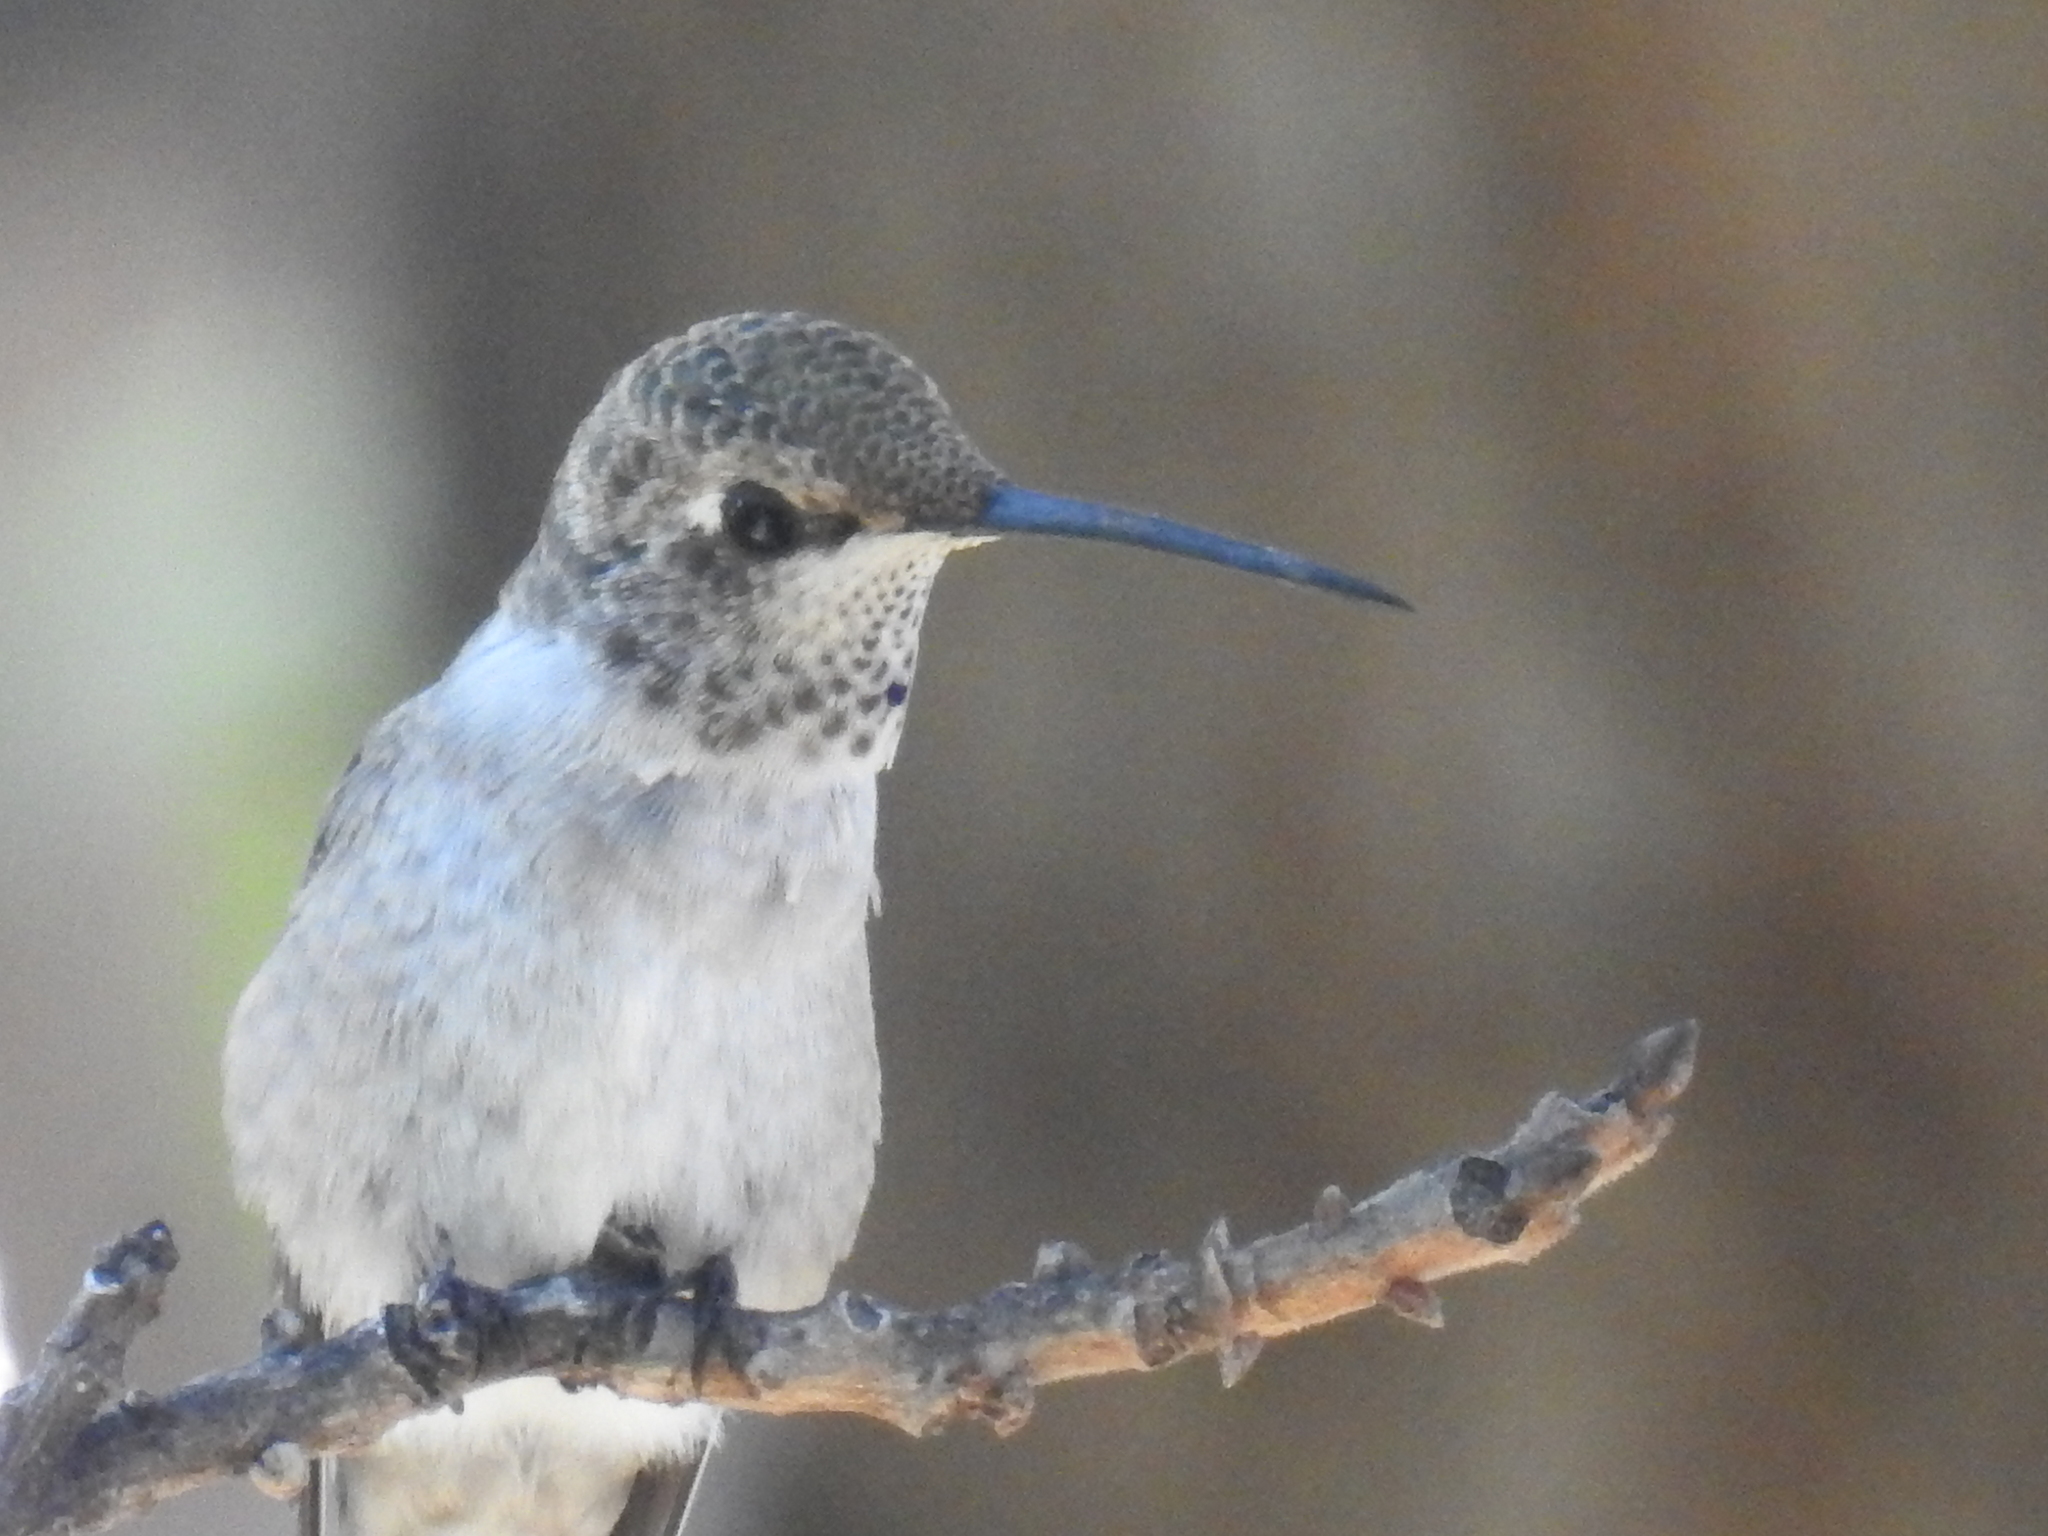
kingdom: Animalia
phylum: Chordata
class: Aves
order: Apodiformes
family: Trochilidae
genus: Archilochus
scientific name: Archilochus alexandri
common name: Black-chinned hummingbird
